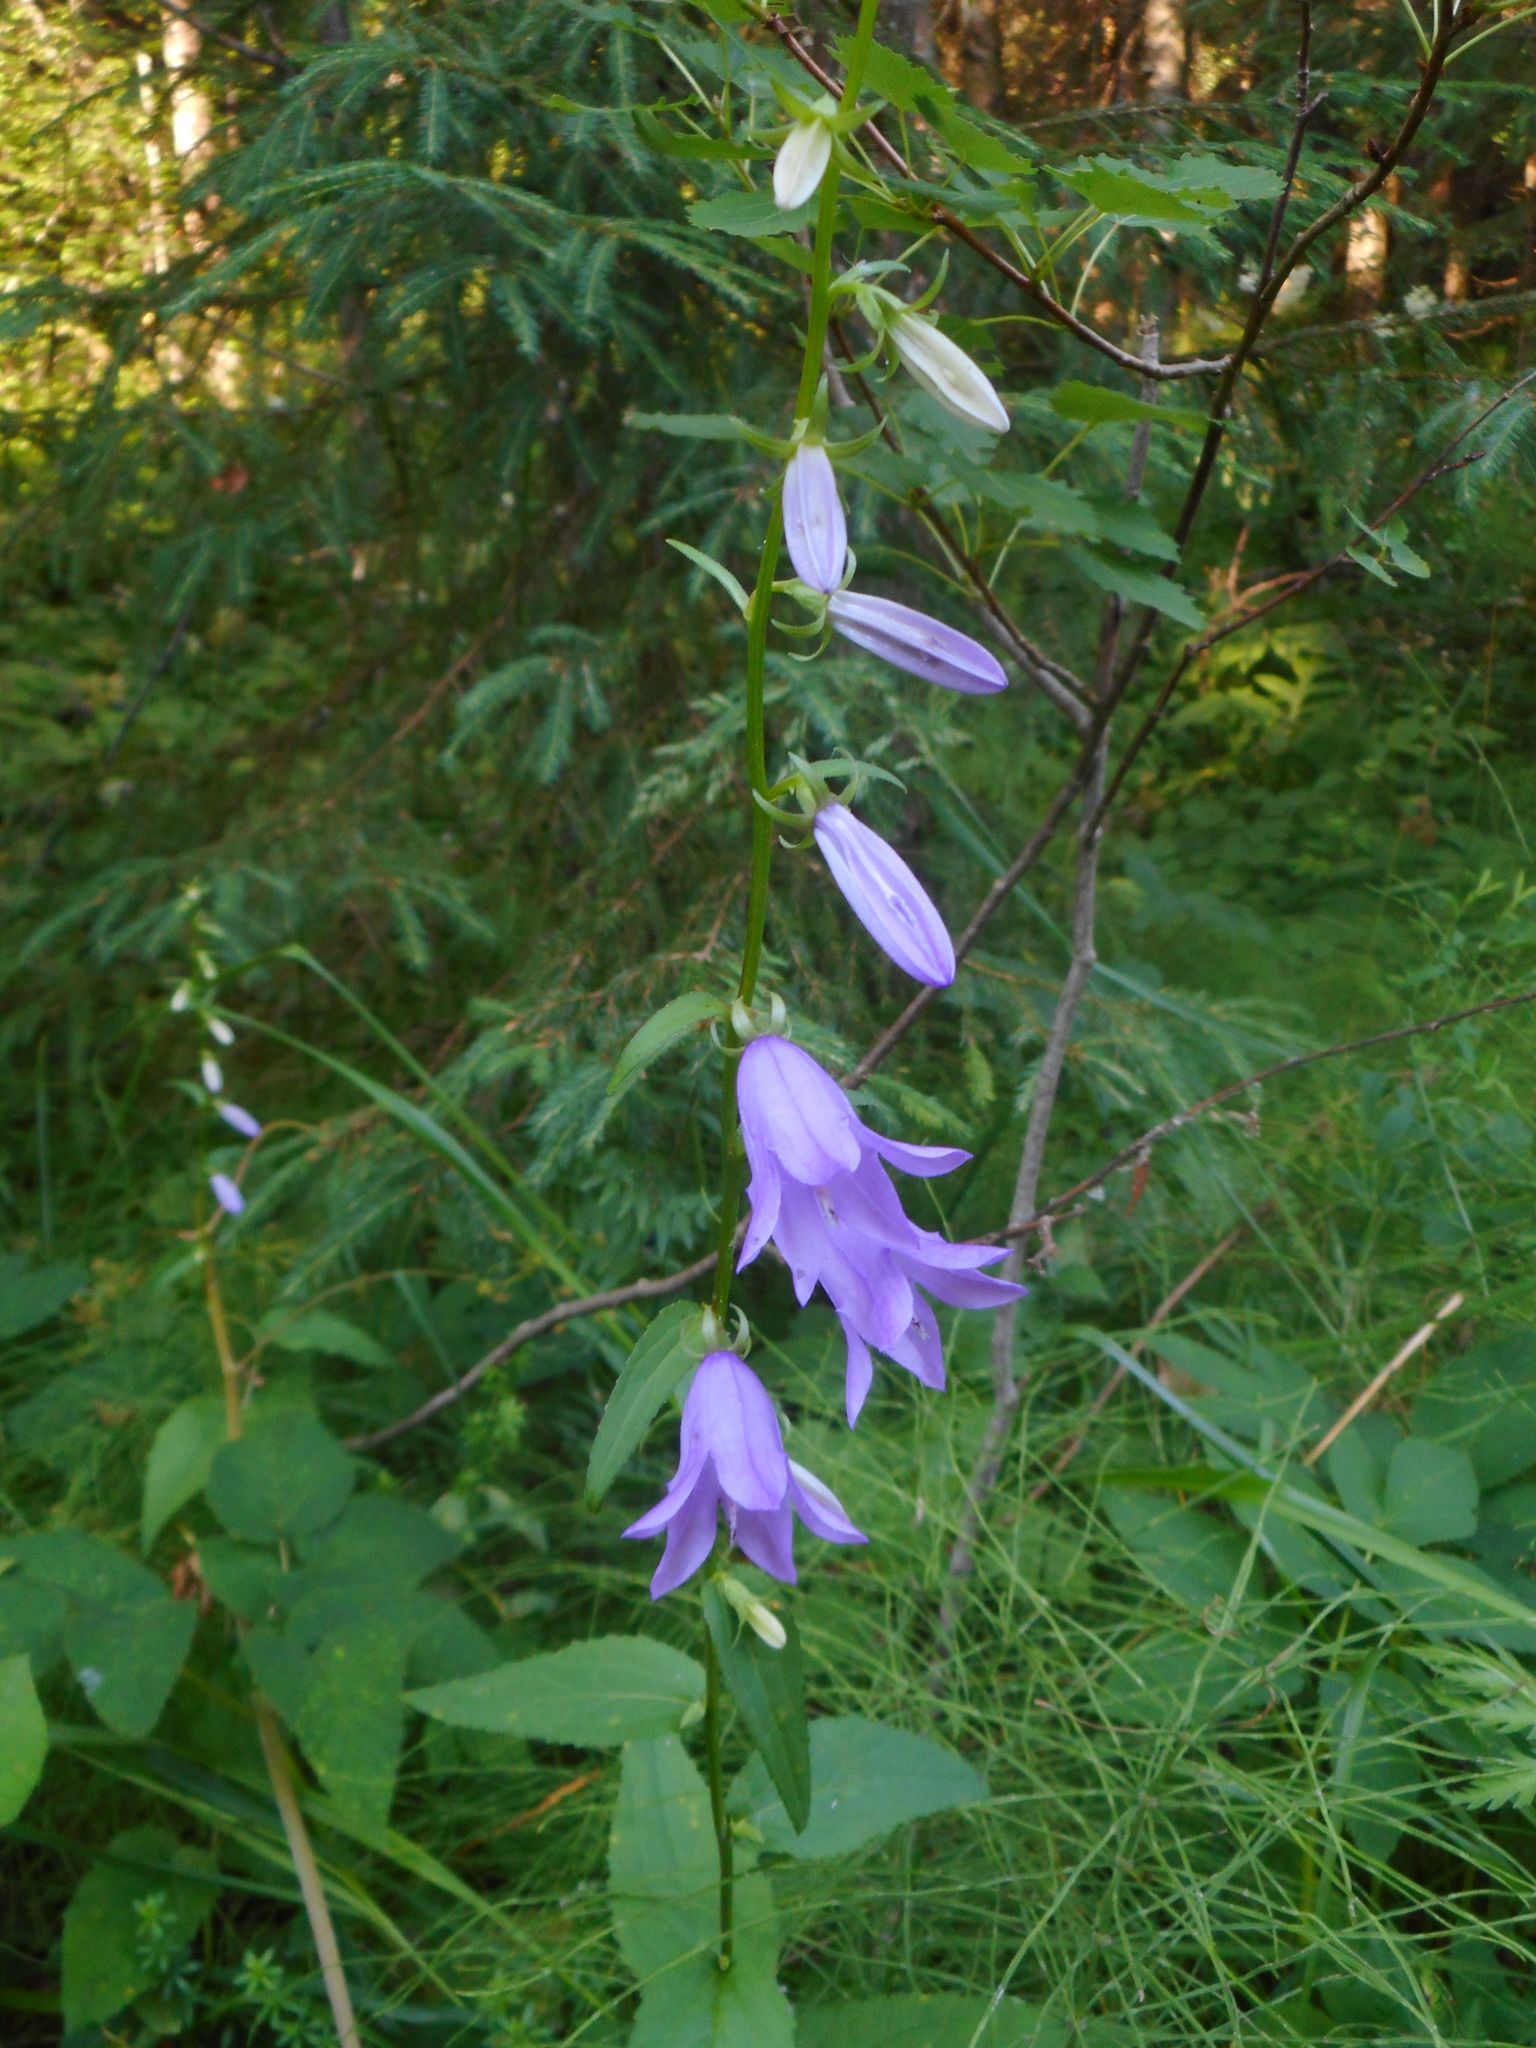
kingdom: Plantae
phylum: Tracheophyta
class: Magnoliopsida
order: Asterales
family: Campanulaceae
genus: Campanula
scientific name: Campanula rapunculoides
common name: Creeping bellflower
